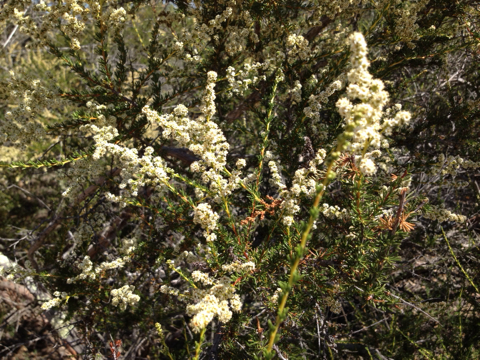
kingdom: Plantae
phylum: Tracheophyta
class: Magnoliopsida
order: Rosales
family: Rosaceae
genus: Adenostoma
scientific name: Adenostoma fasciculatum
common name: Chamise
